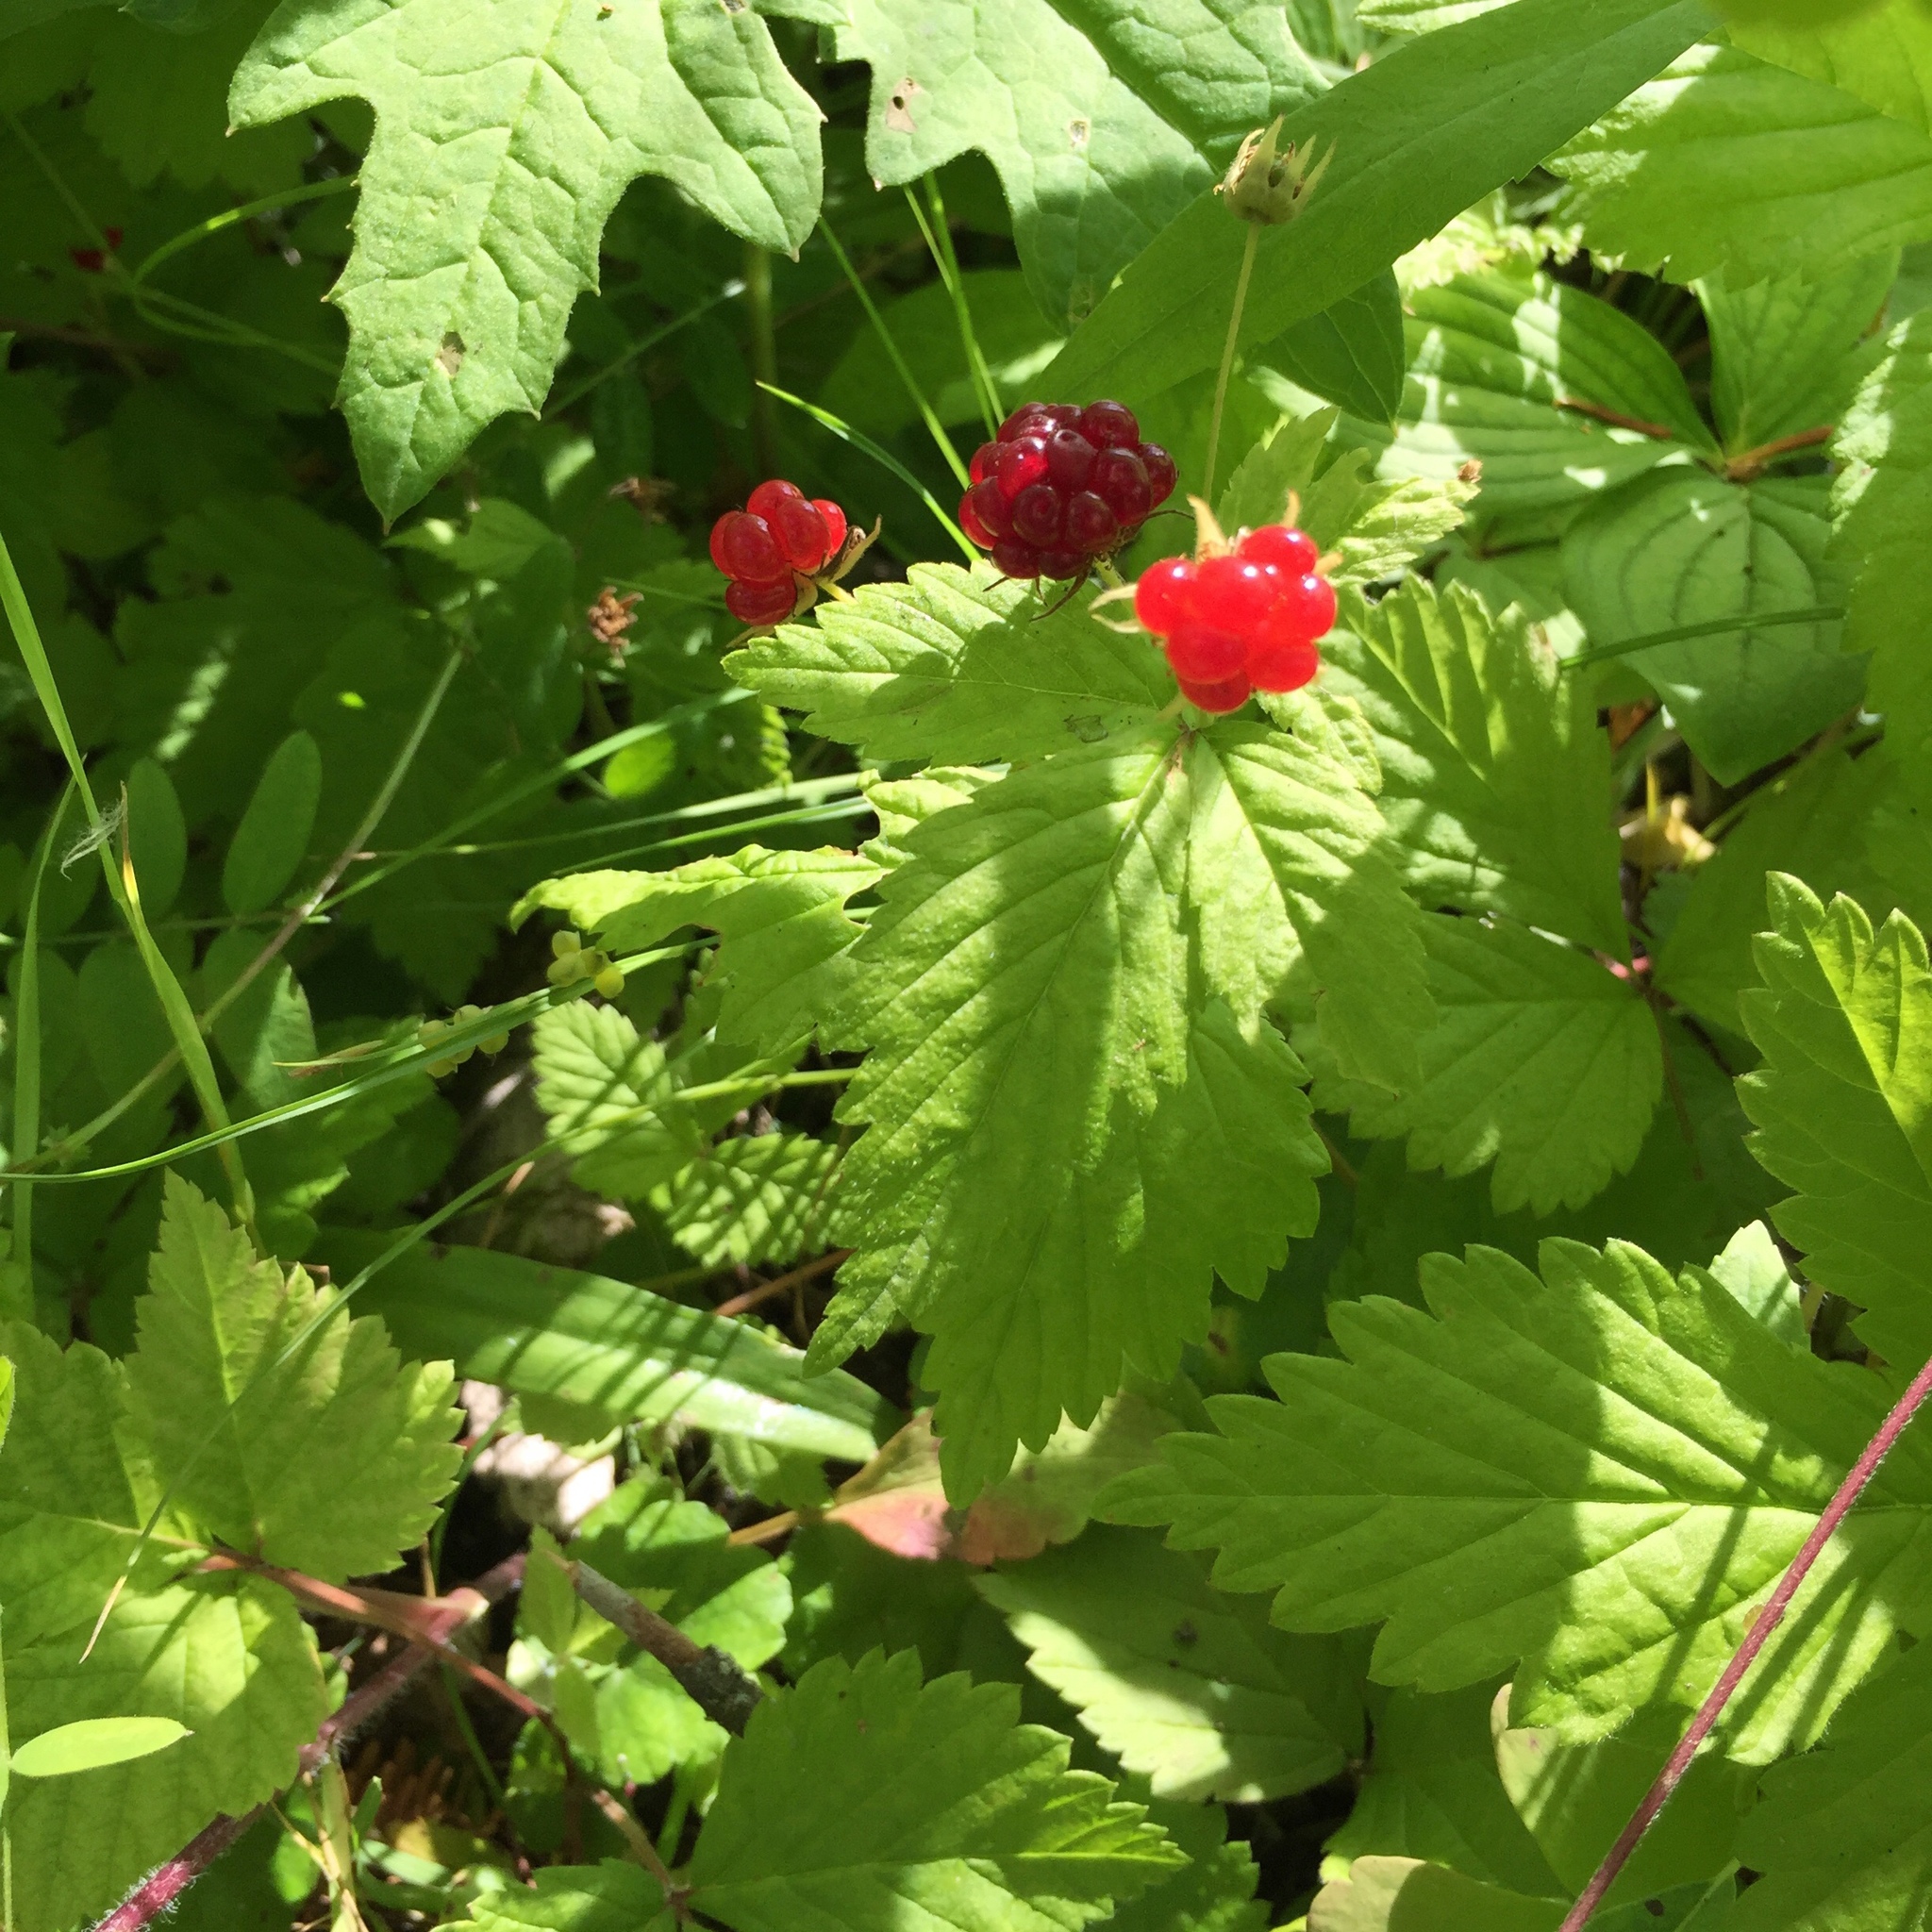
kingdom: Plantae
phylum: Tracheophyta
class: Magnoliopsida
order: Rosales
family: Rosaceae
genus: Rubus
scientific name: Rubus pubescens
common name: Dwarf raspberry
